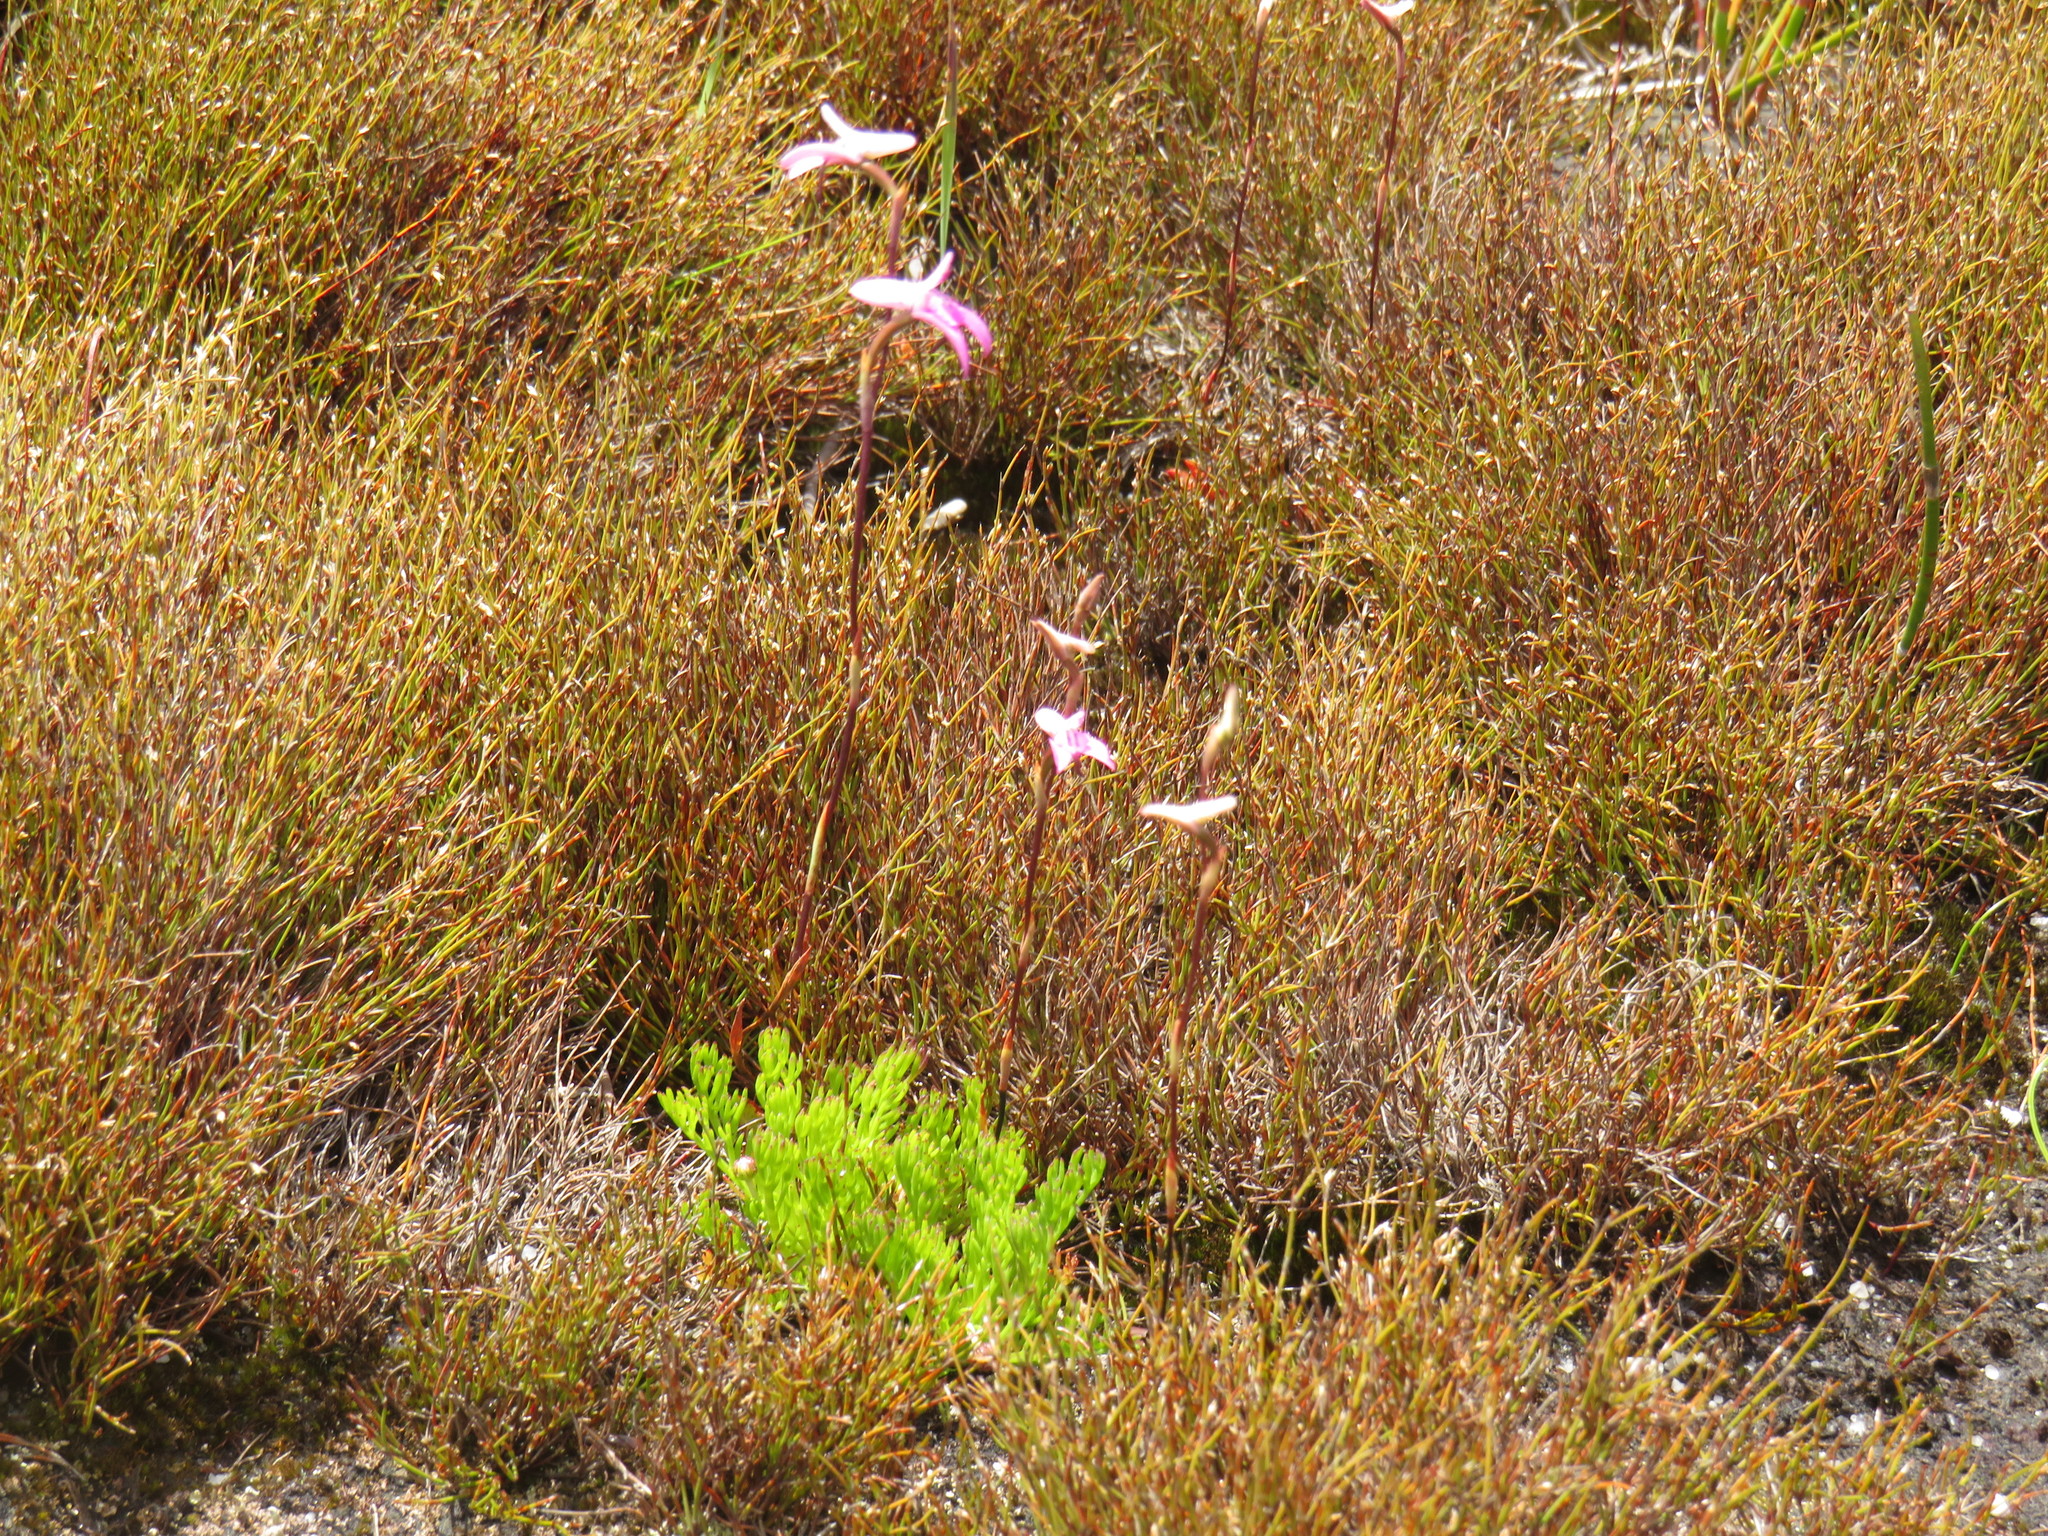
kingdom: Plantae
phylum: Tracheophyta
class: Liliopsida
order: Asparagales
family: Orchidaceae
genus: Disa
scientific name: Disa inflexa
